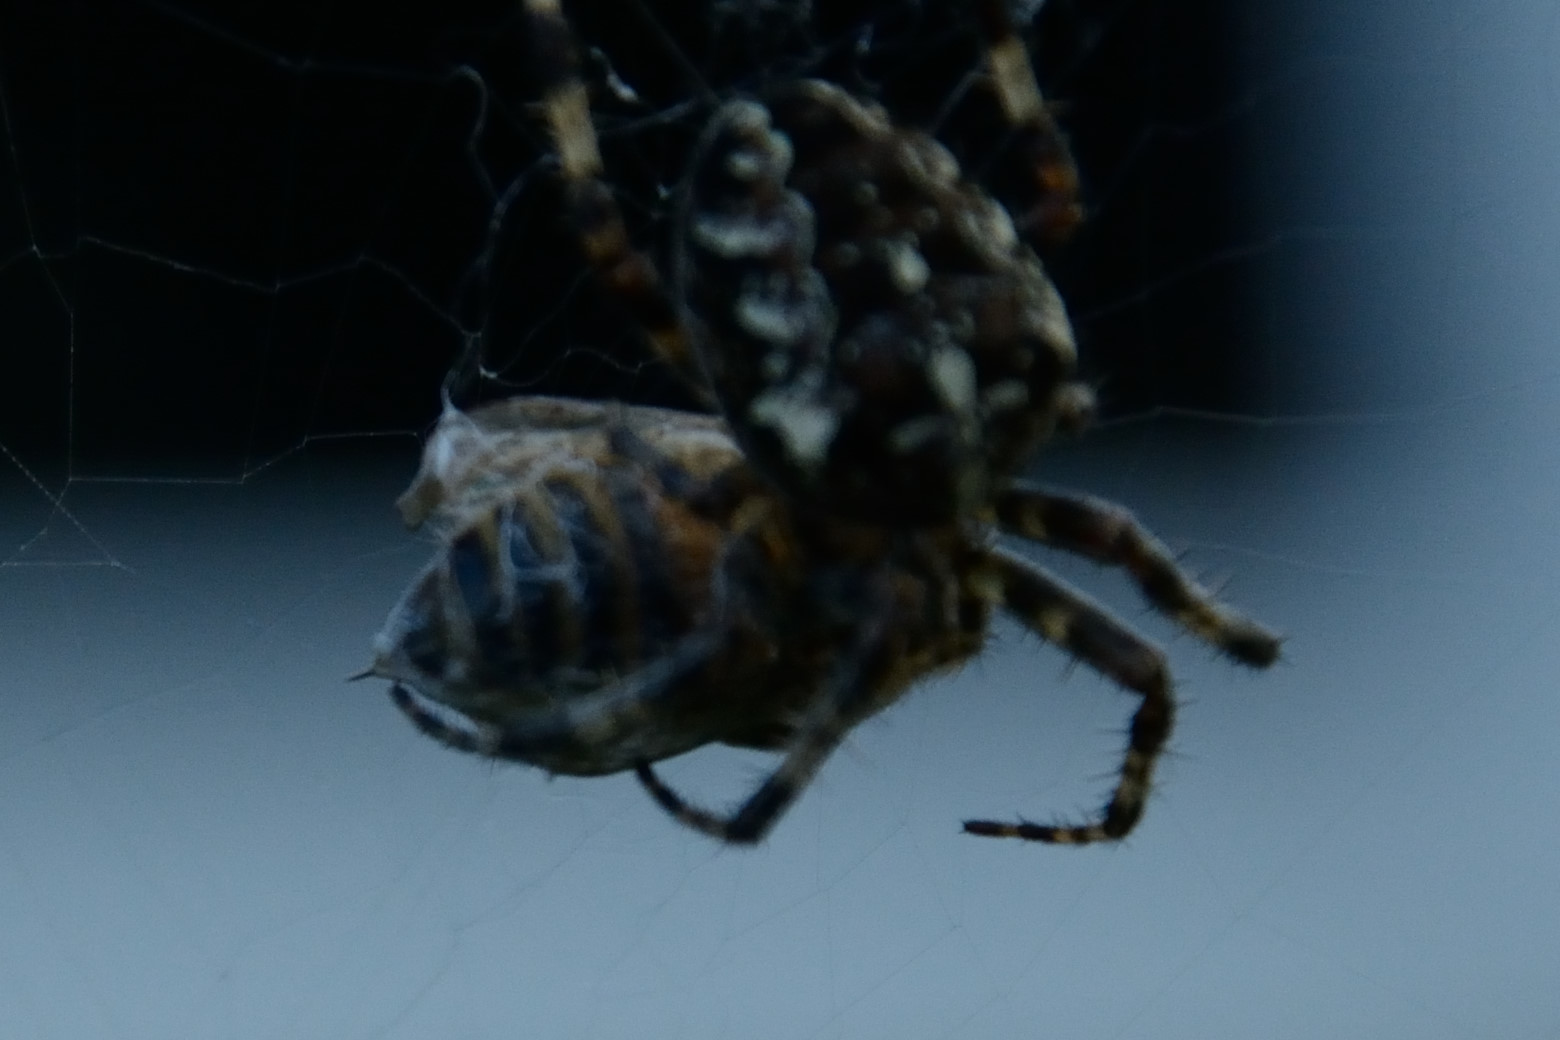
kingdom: Animalia
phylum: Arthropoda
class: Insecta
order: Hymenoptera
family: Apidae
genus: Apis
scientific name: Apis mellifera
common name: Honey bee
